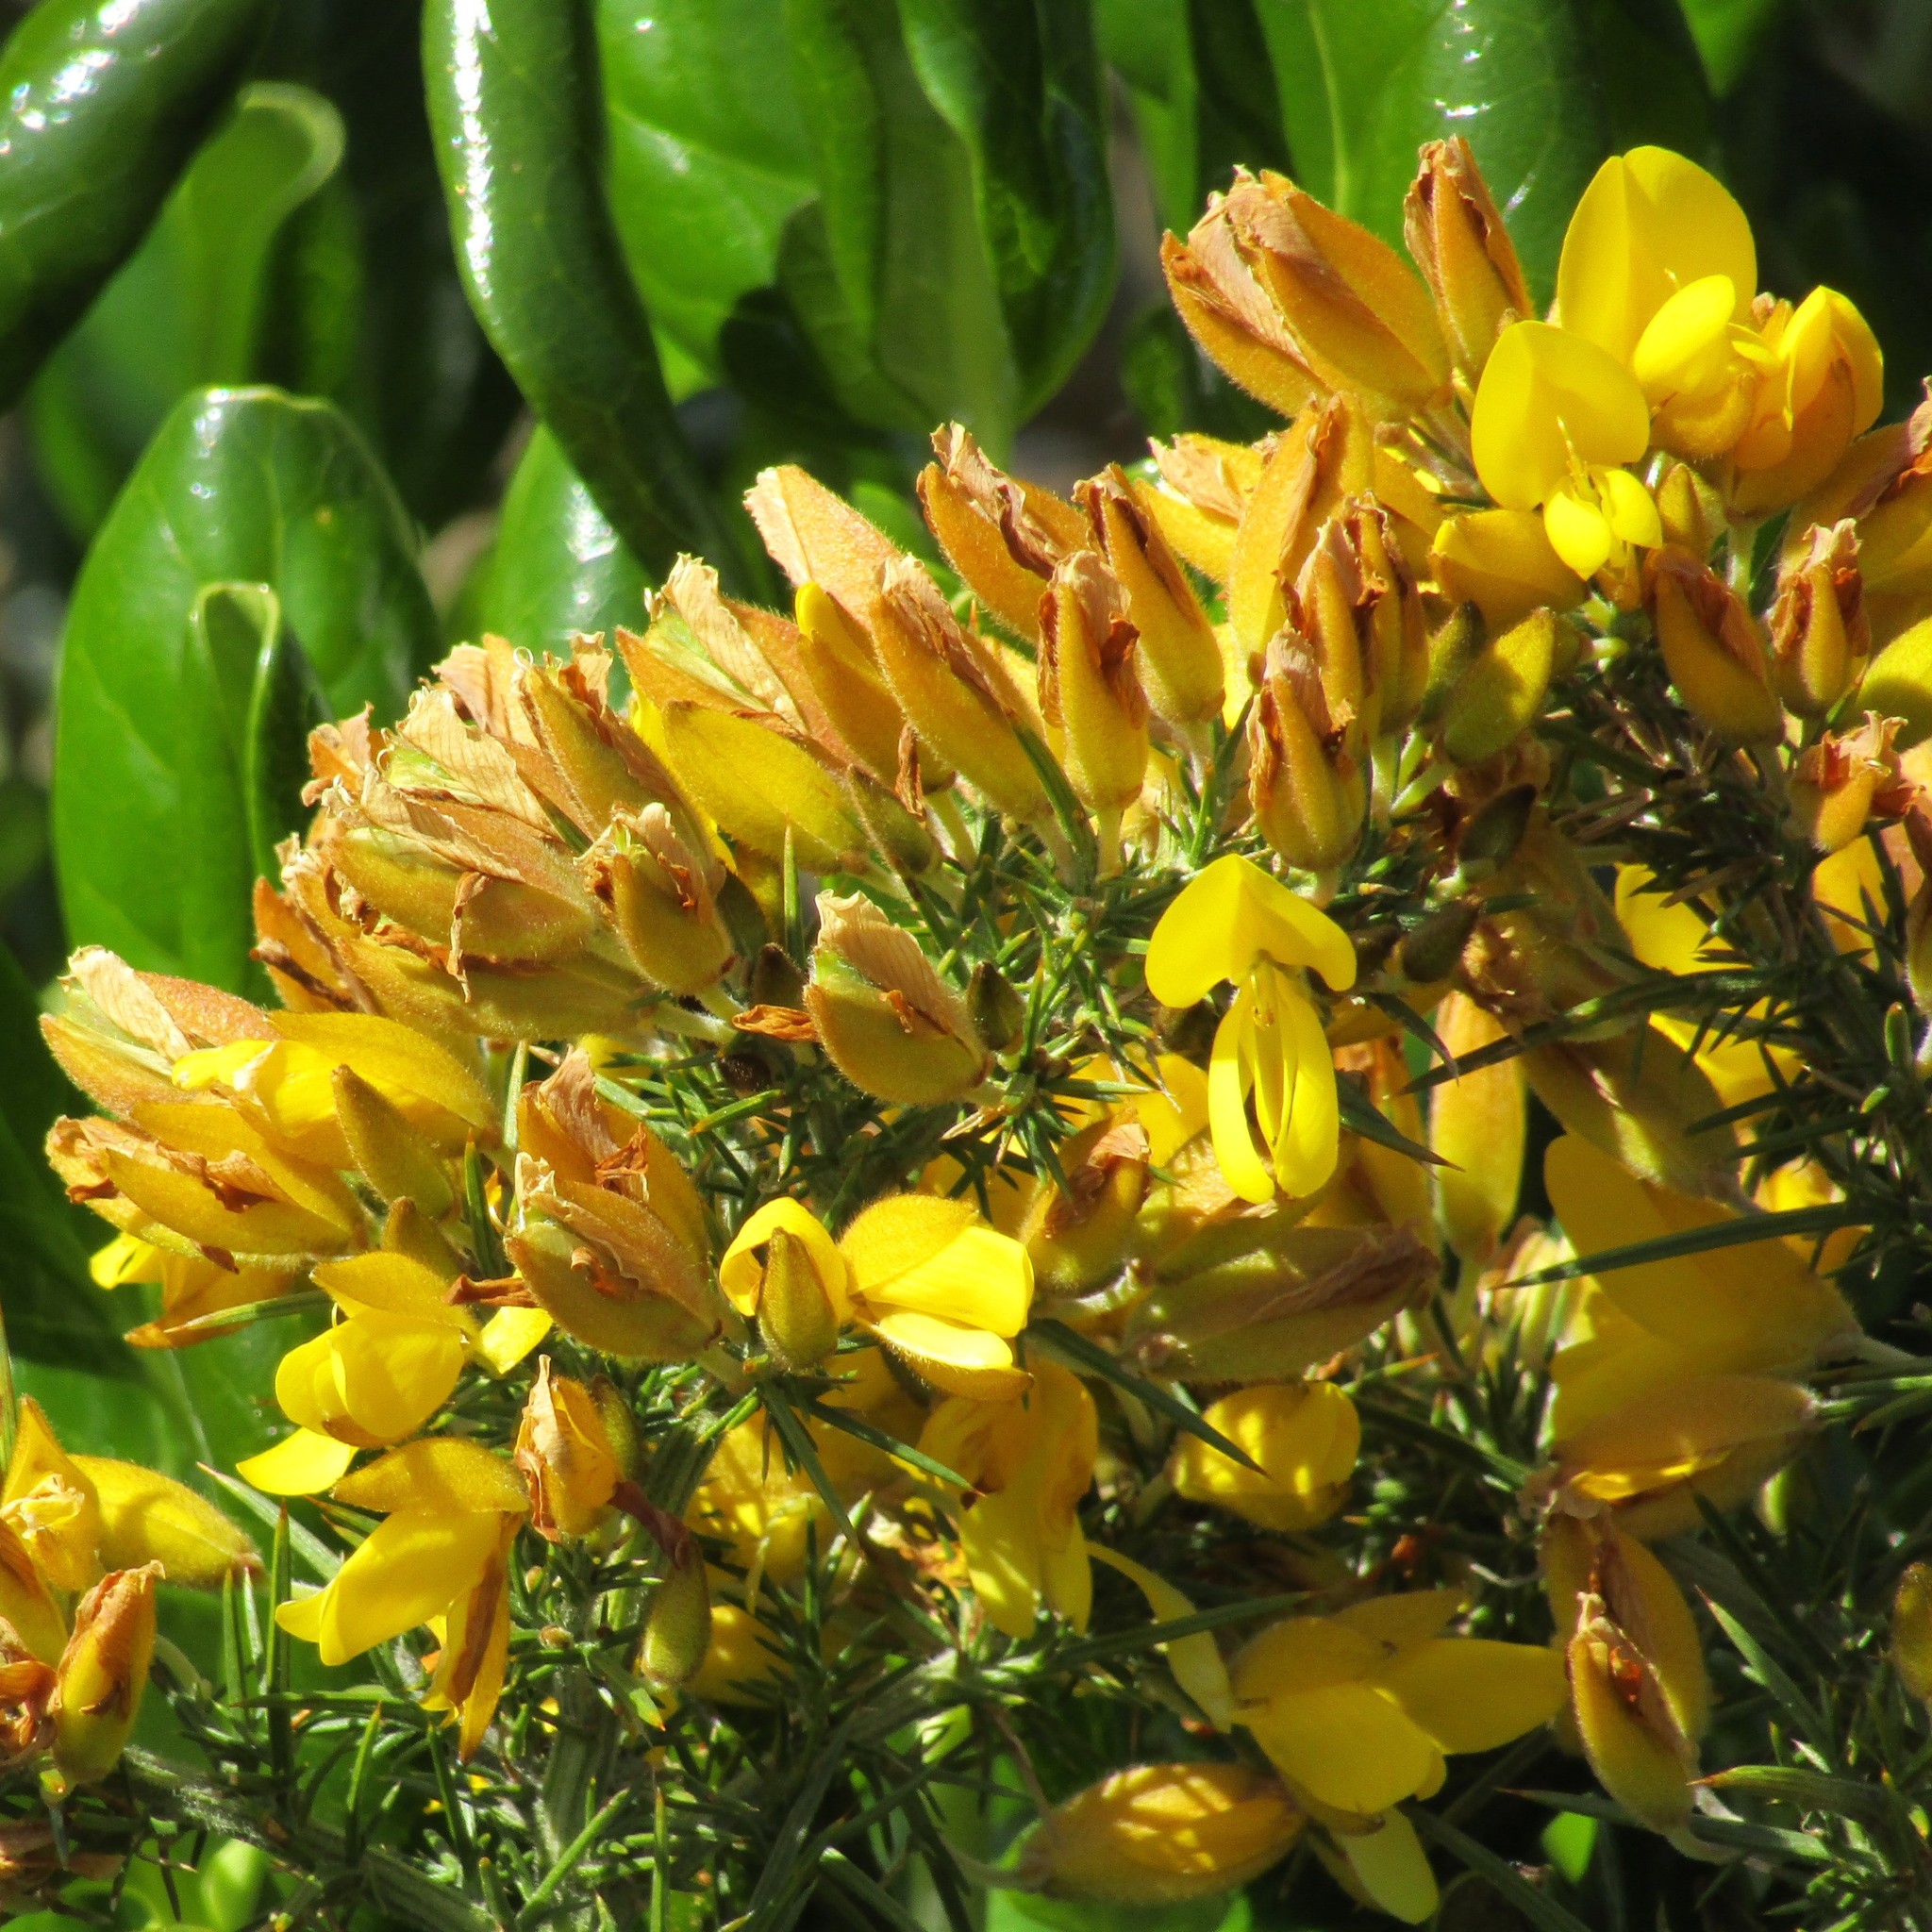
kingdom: Plantae
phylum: Tracheophyta
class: Magnoliopsida
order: Fabales
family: Fabaceae
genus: Ulex
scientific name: Ulex europaeus
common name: Common gorse
